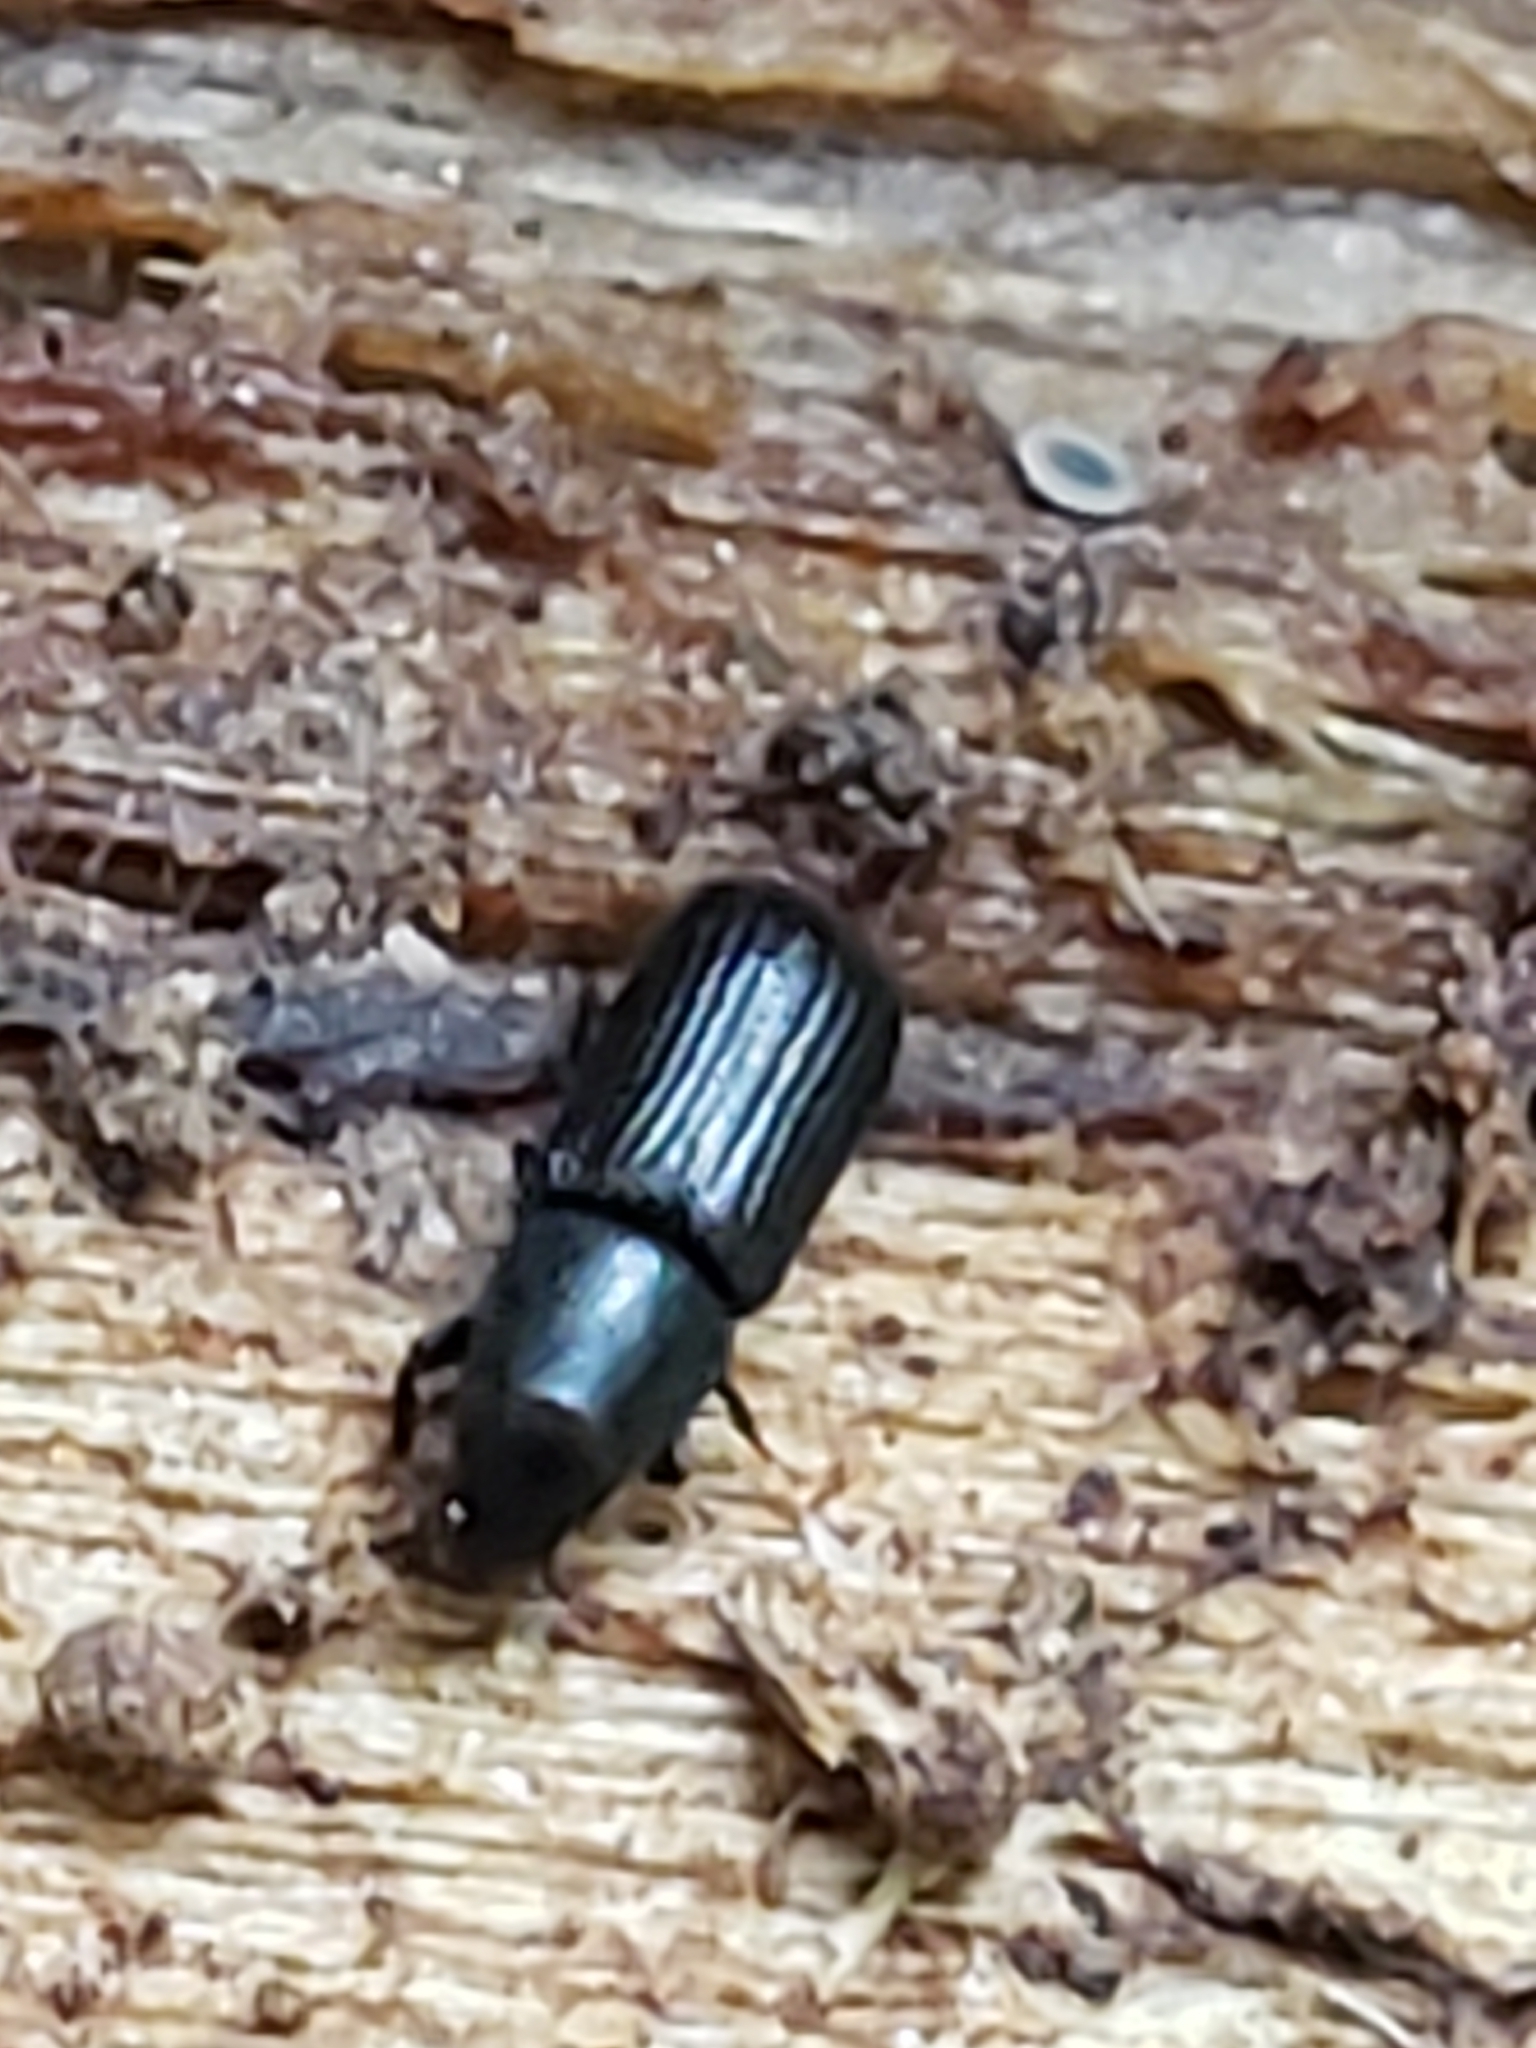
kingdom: Animalia
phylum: Arthropoda
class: Insecta
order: Coleoptera
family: Curculionidae
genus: Stenoscelis
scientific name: Stenoscelis brevis
